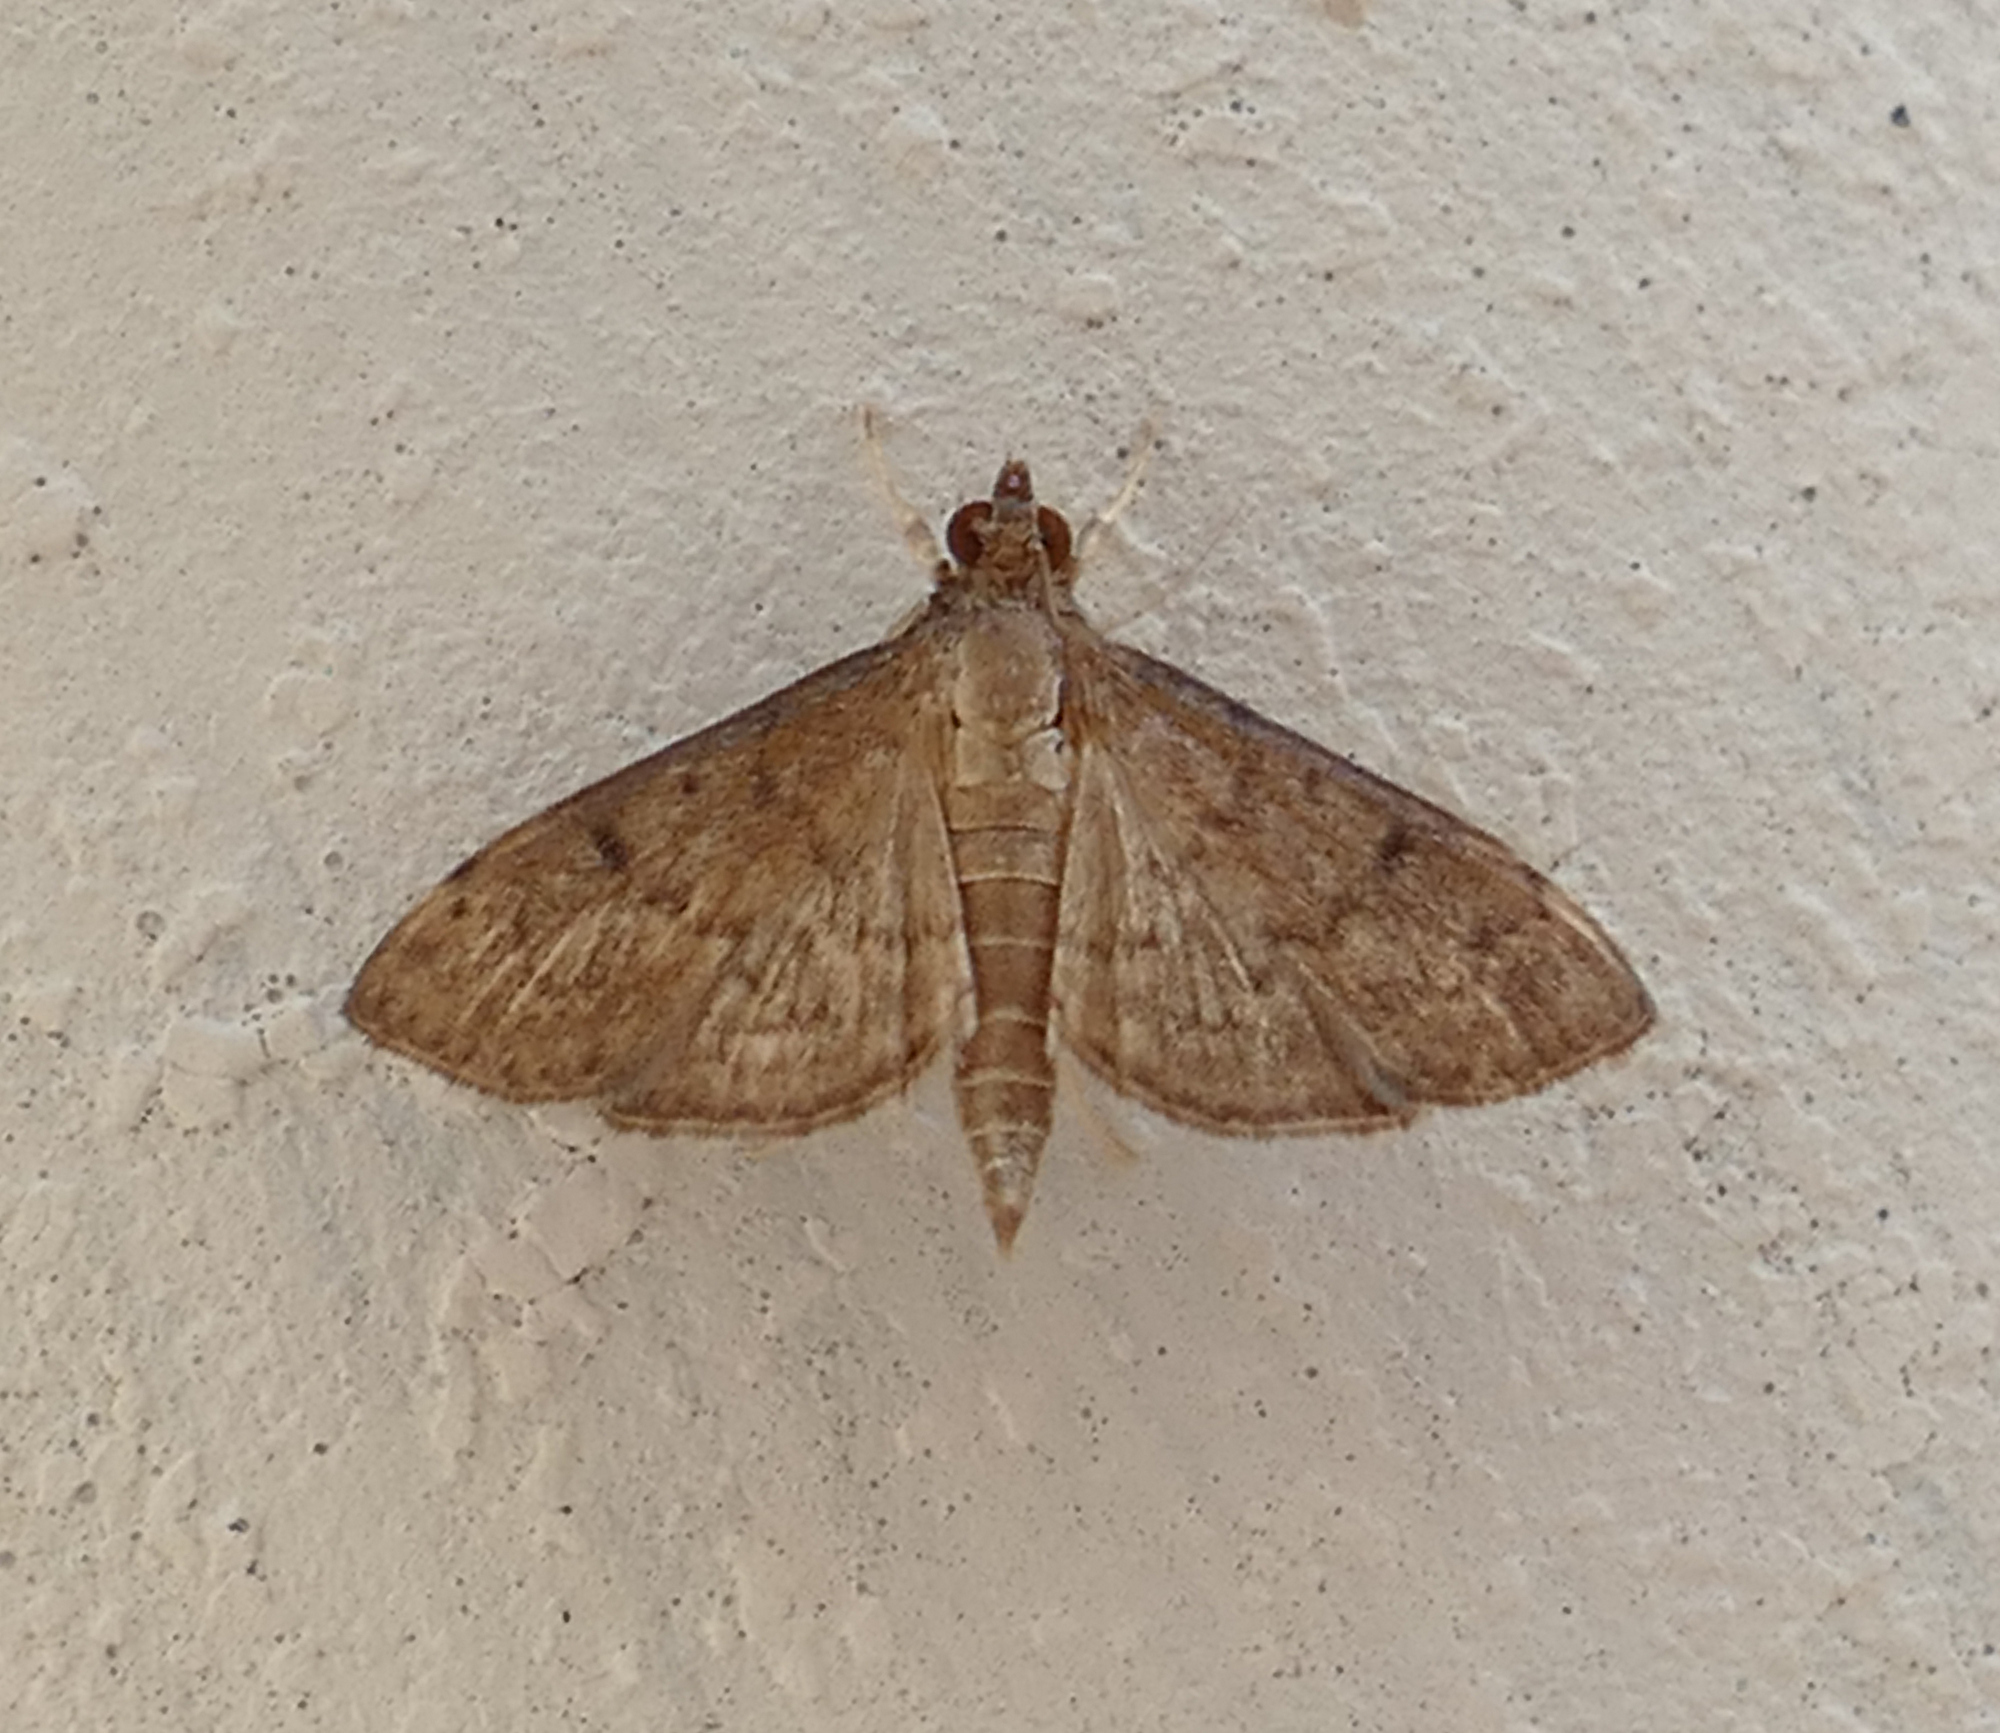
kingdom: Animalia
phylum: Arthropoda
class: Insecta
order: Lepidoptera
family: Crambidae
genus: Herpetogramma
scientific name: Herpetogramma phaeopteralis
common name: Dusky herpetogramma moth
